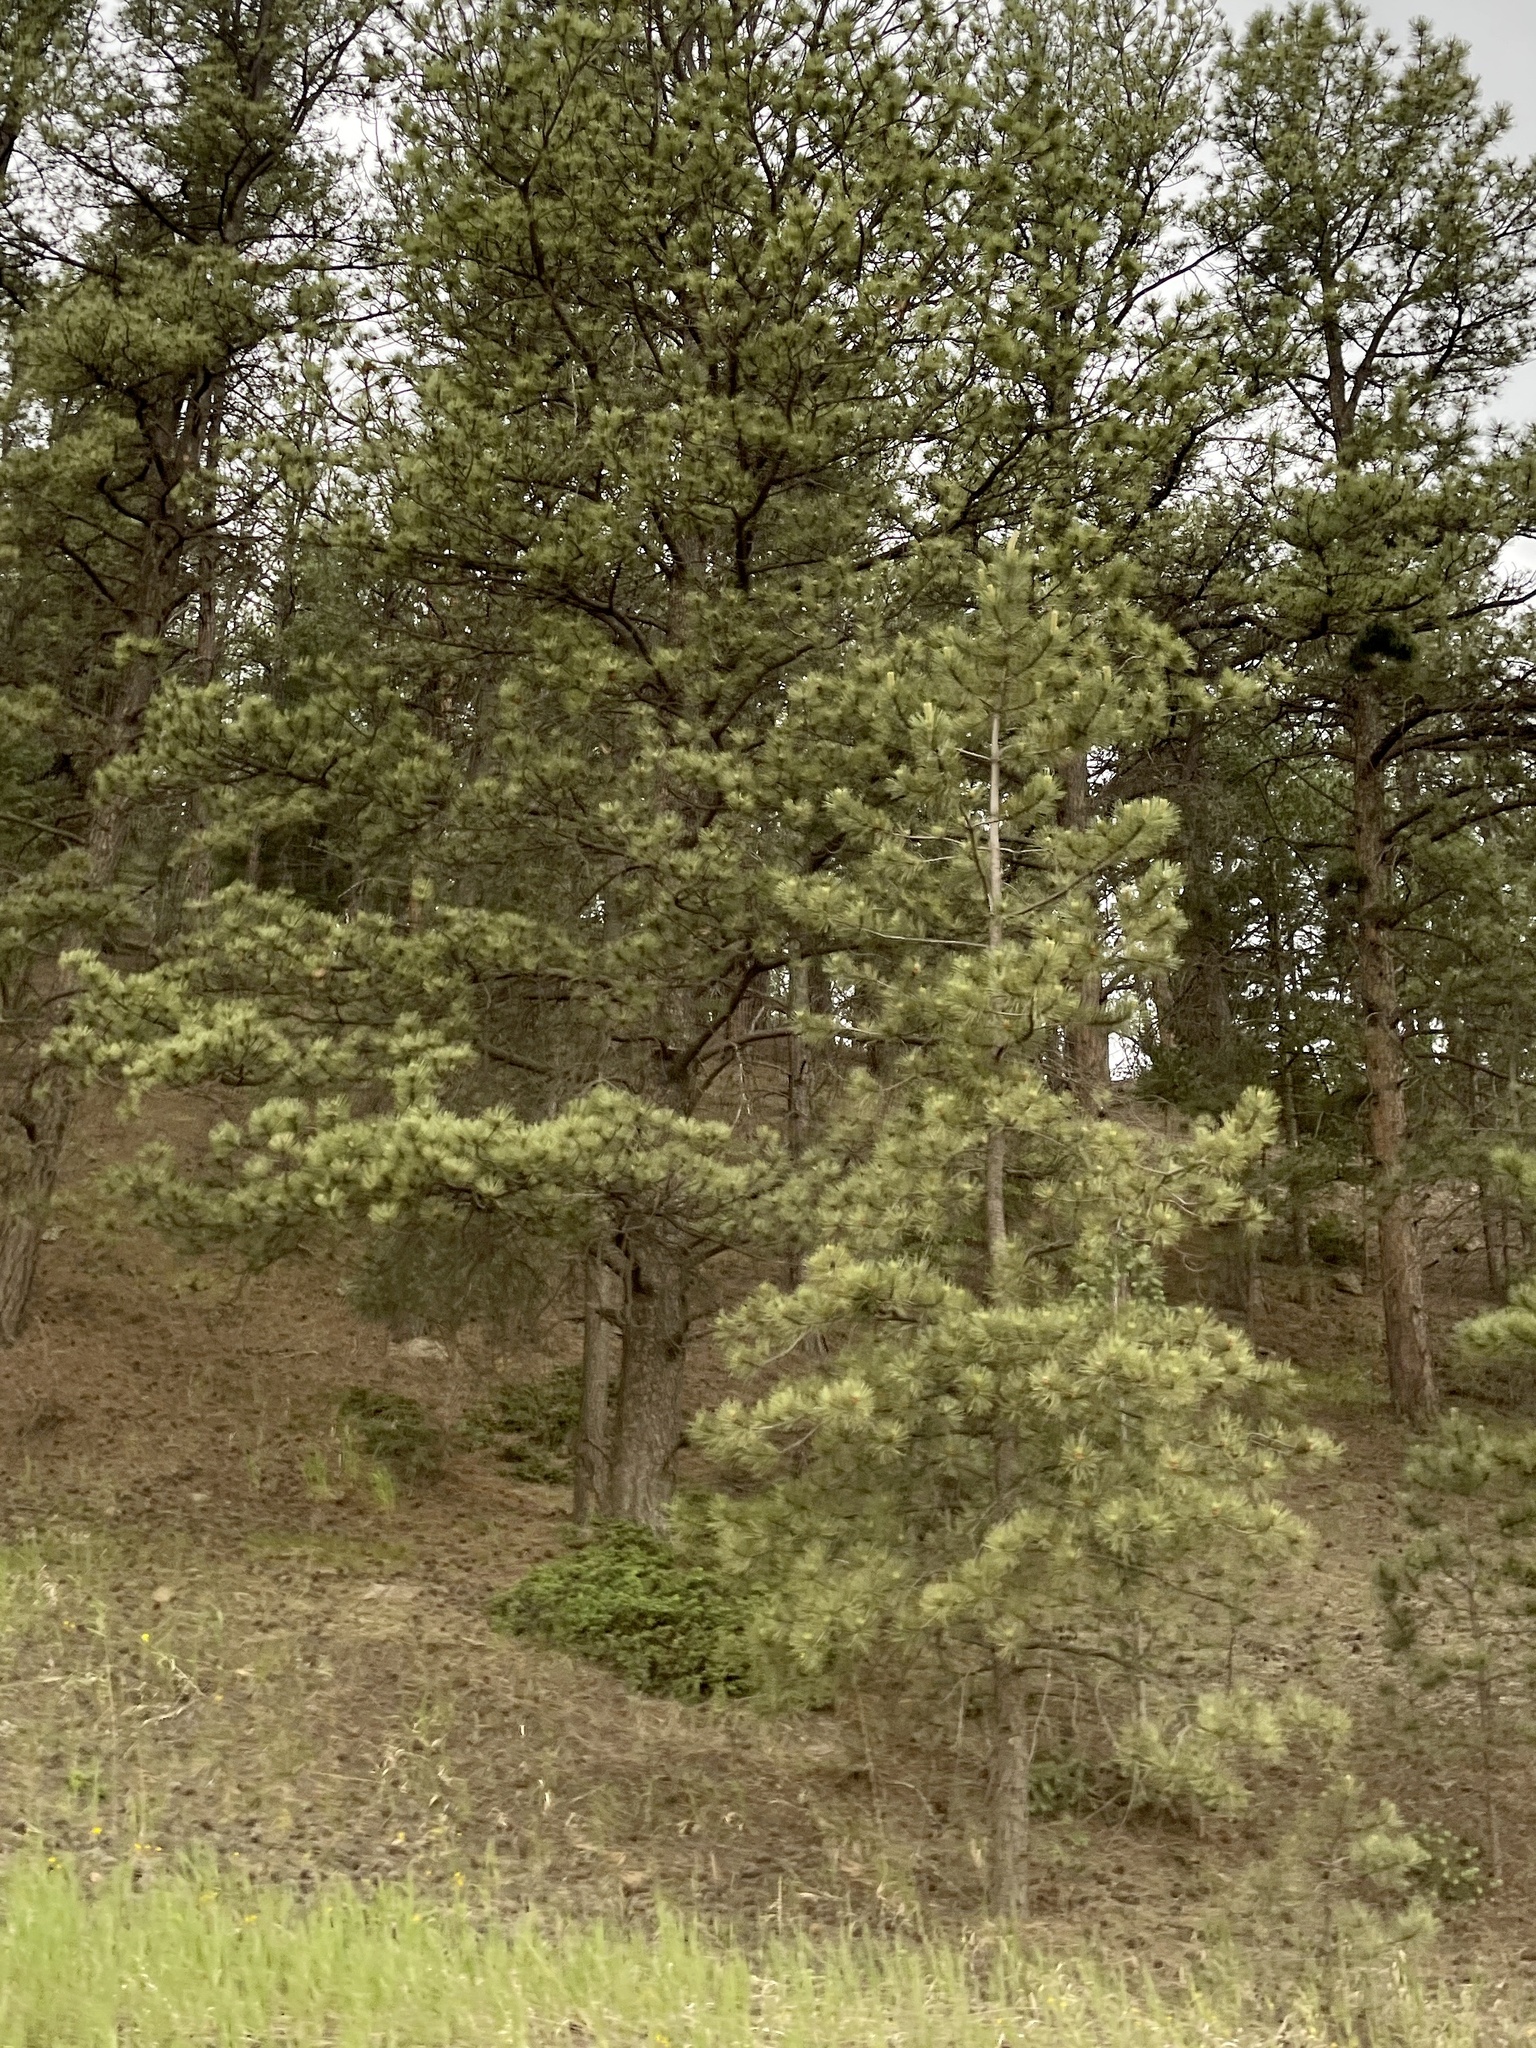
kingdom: Plantae
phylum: Tracheophyta
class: Pinopsida
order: Pinales
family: Pinaceae
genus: Pinus
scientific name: Pinus ponderosa
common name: Western yellow-pine
